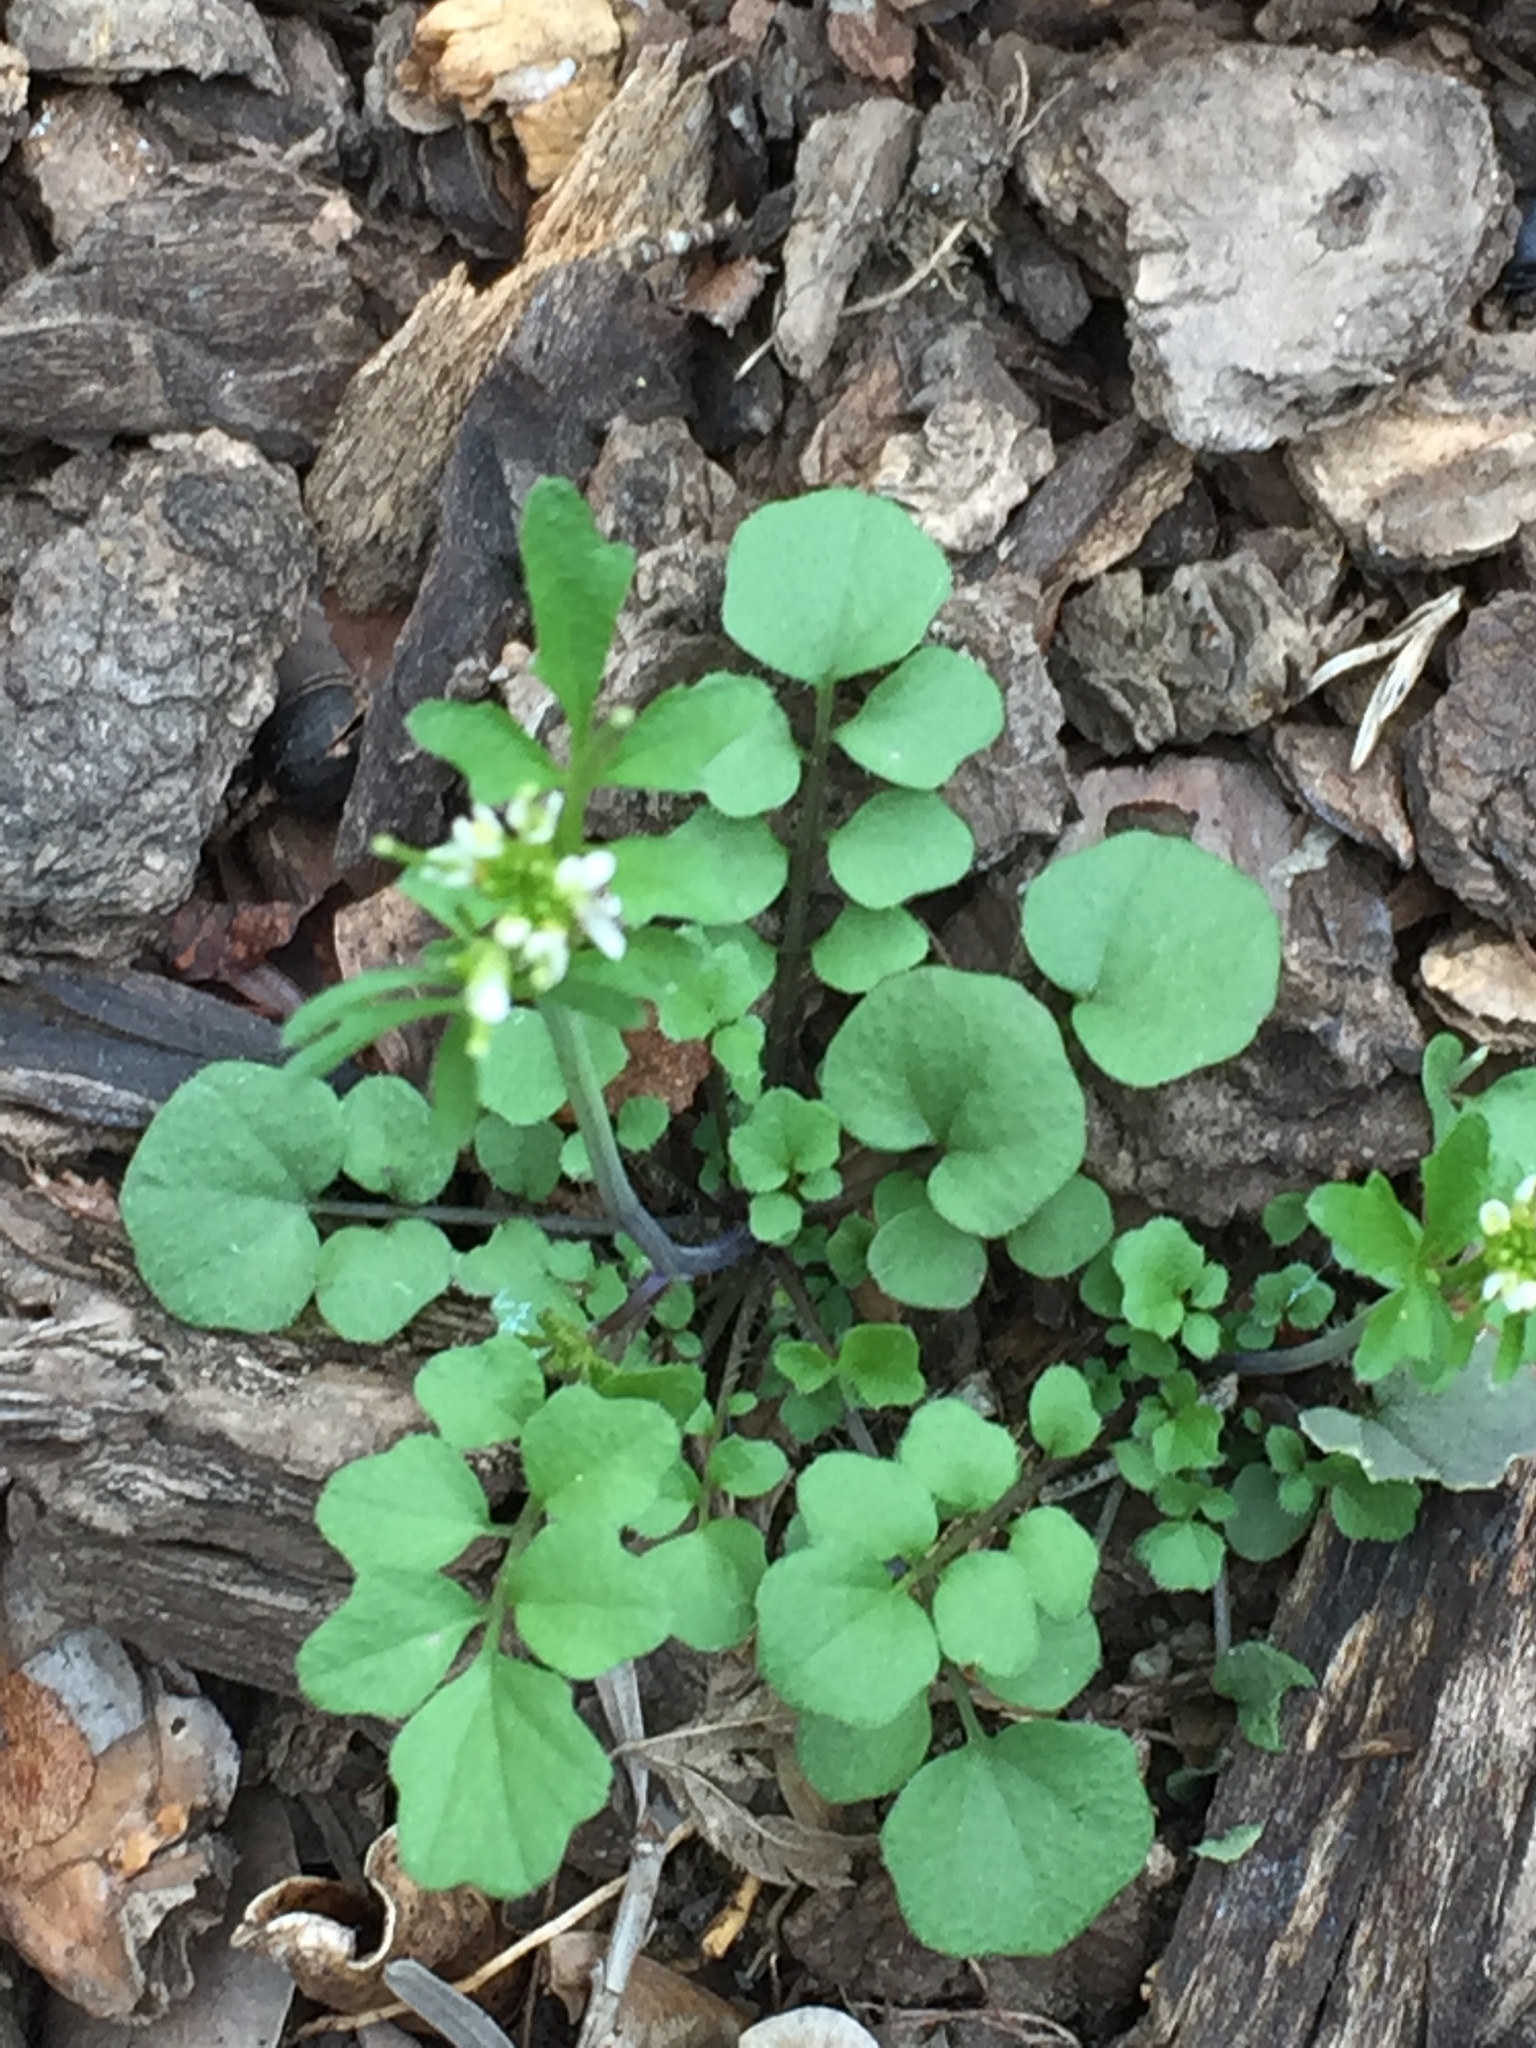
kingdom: Plantae
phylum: Tracheophyta
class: Magnoliopsida
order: Brassicales
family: Brassicaceae
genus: Cardamine
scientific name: Cardamine hirsuta
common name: Hairy bittercress
